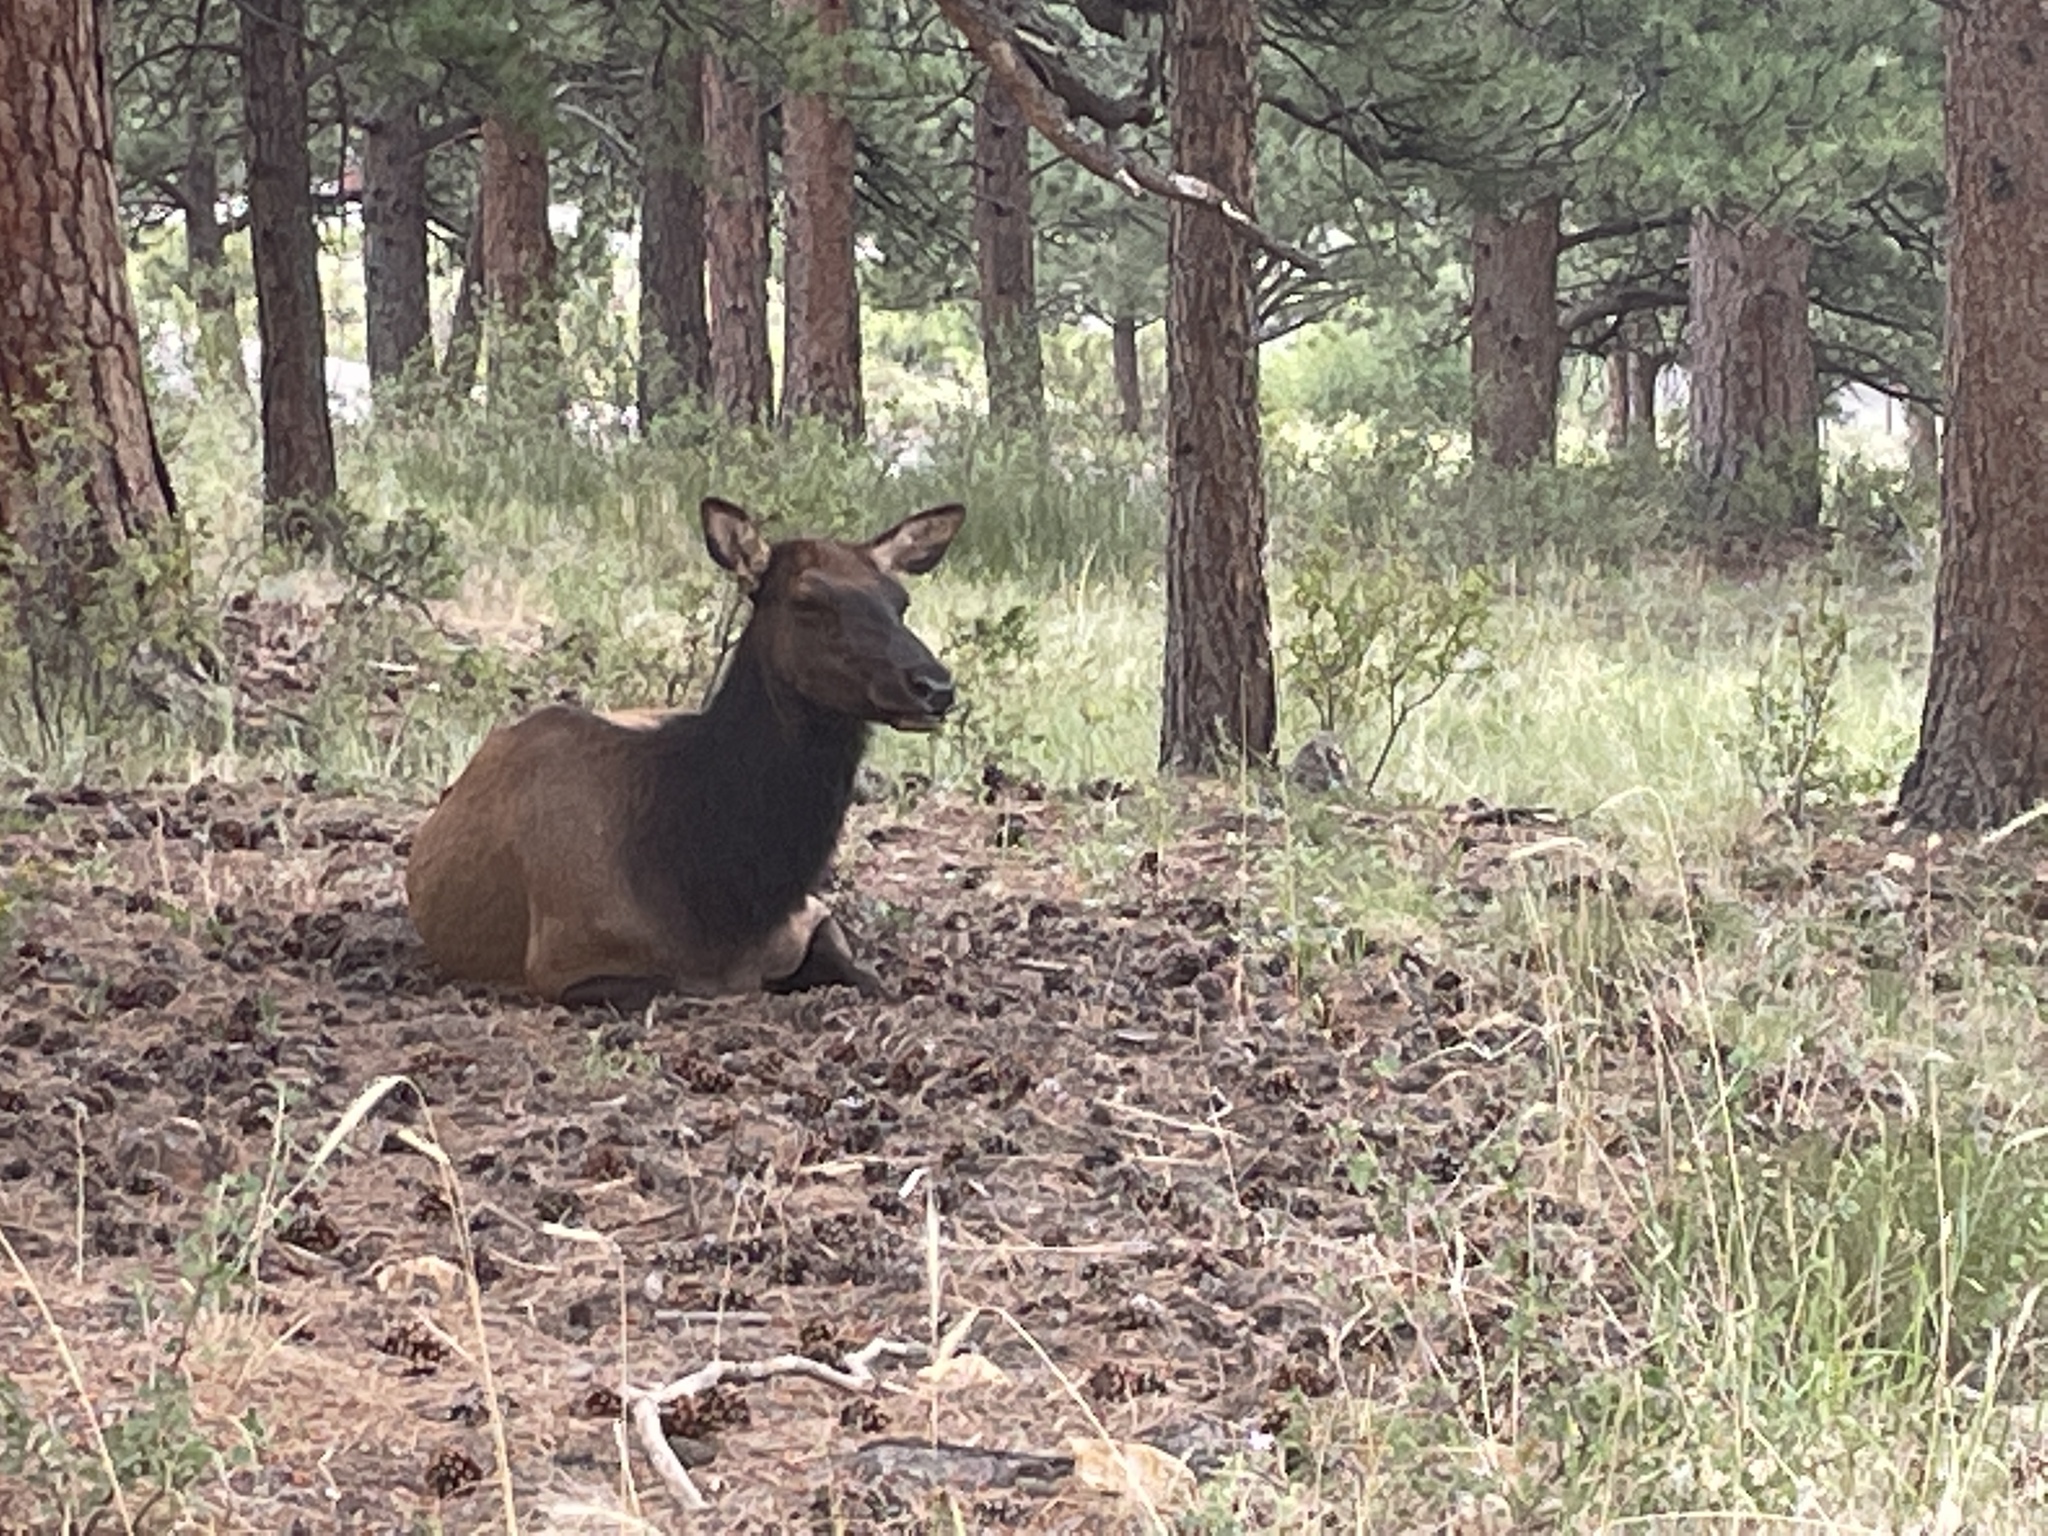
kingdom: Animalia
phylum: Chordata
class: Mammalia
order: Artiodactyla
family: Cervidae
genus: Cervus
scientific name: Cervus elaphus
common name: Red deer
